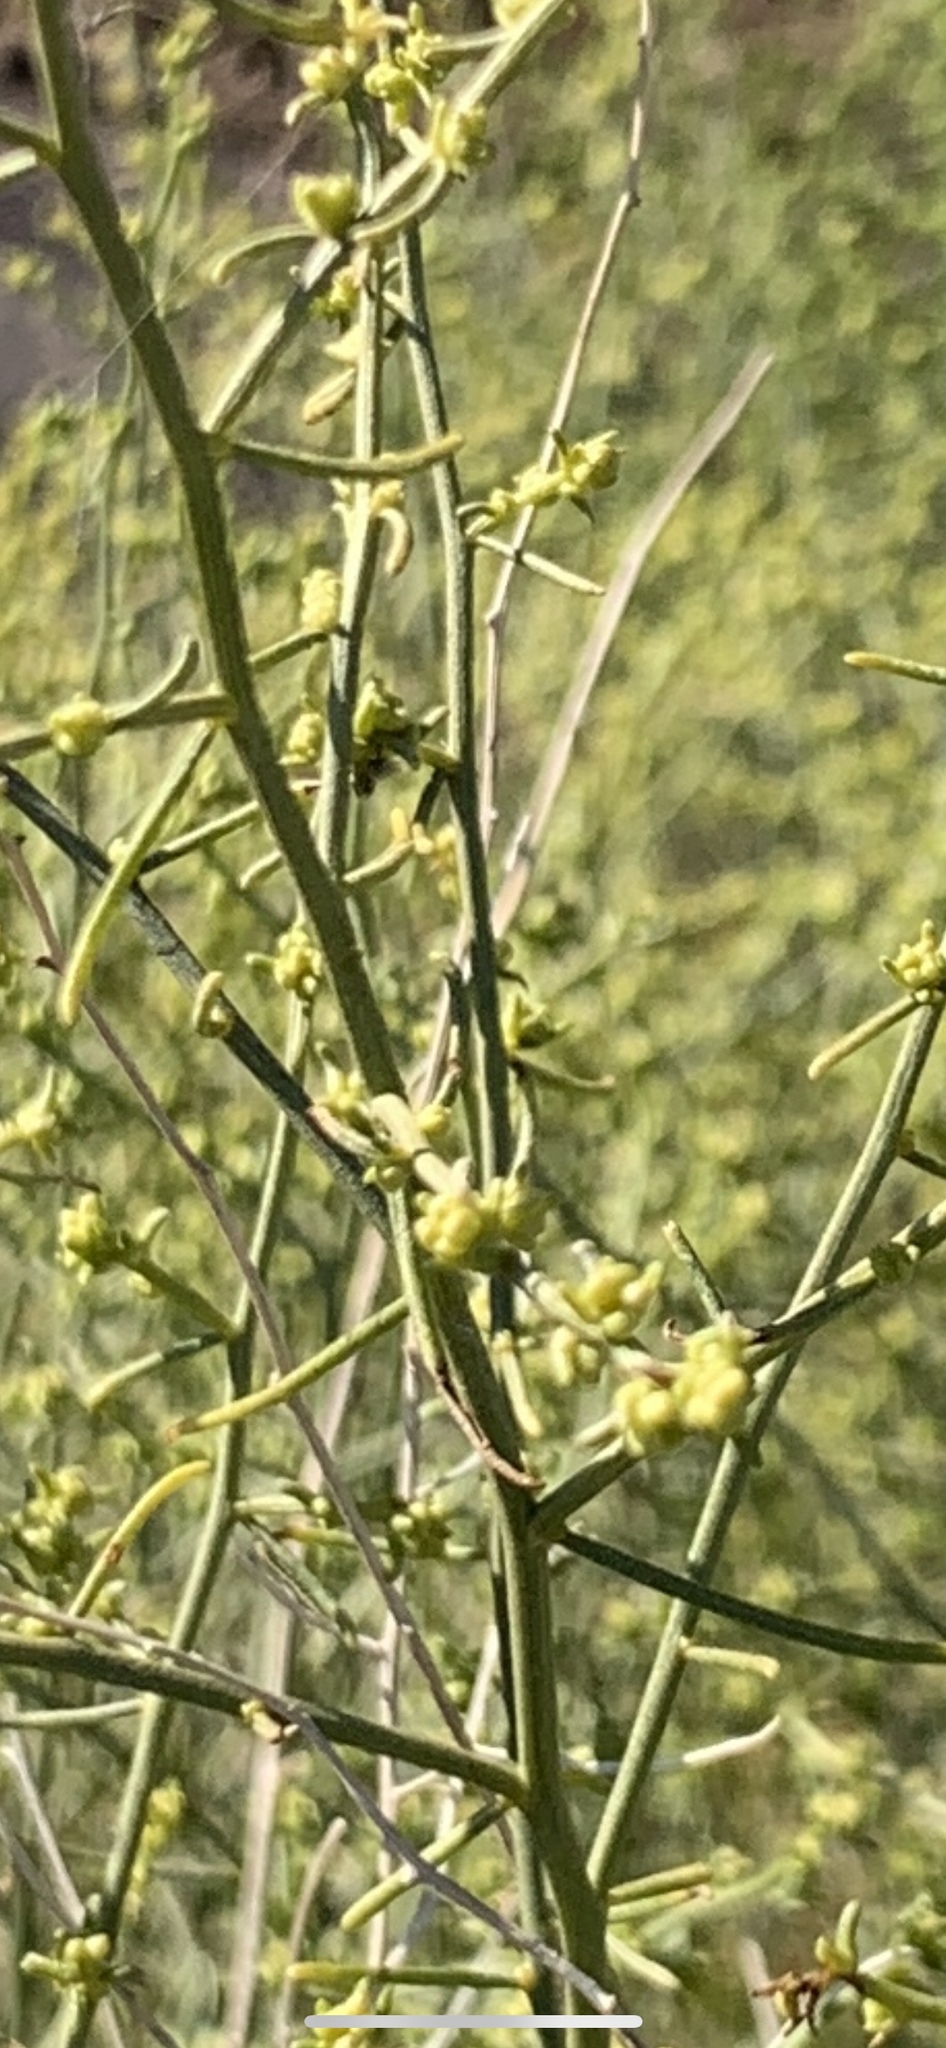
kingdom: Plantae
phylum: Tracheophyta
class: Magnoliopsida
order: Asterales
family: Asteraceae
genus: Ambrosia
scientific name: Ambrosia salsola
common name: Burrobrush
